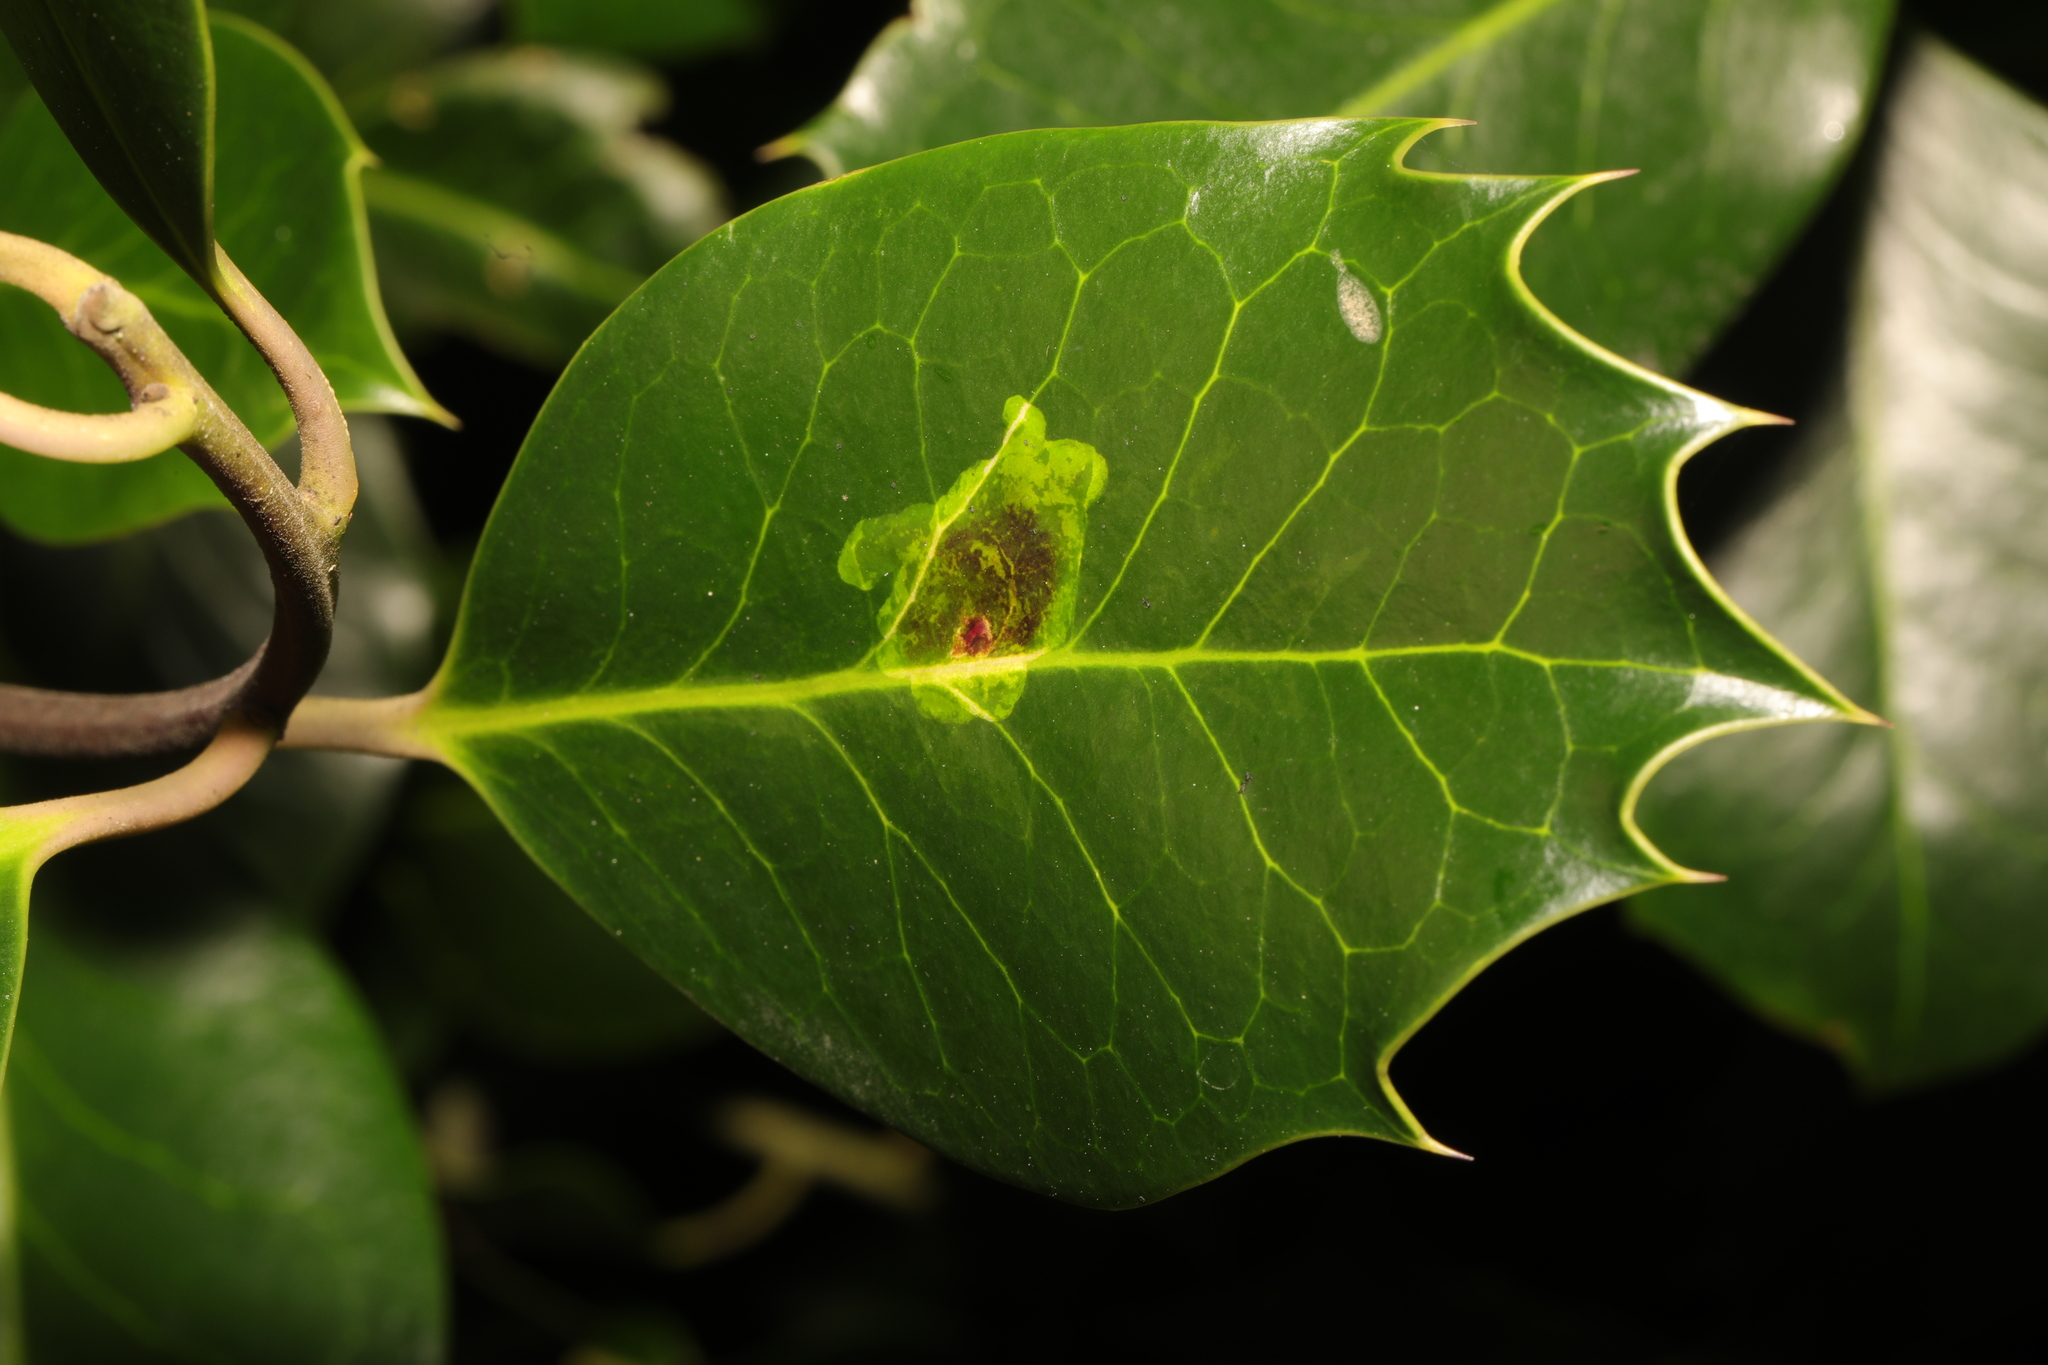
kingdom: Animalia
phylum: Arthropoda
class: Insecta
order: Diptera
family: Agromyzidae
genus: Phytomyza
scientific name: Phytomyza ilicis
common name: Holly leafminer
